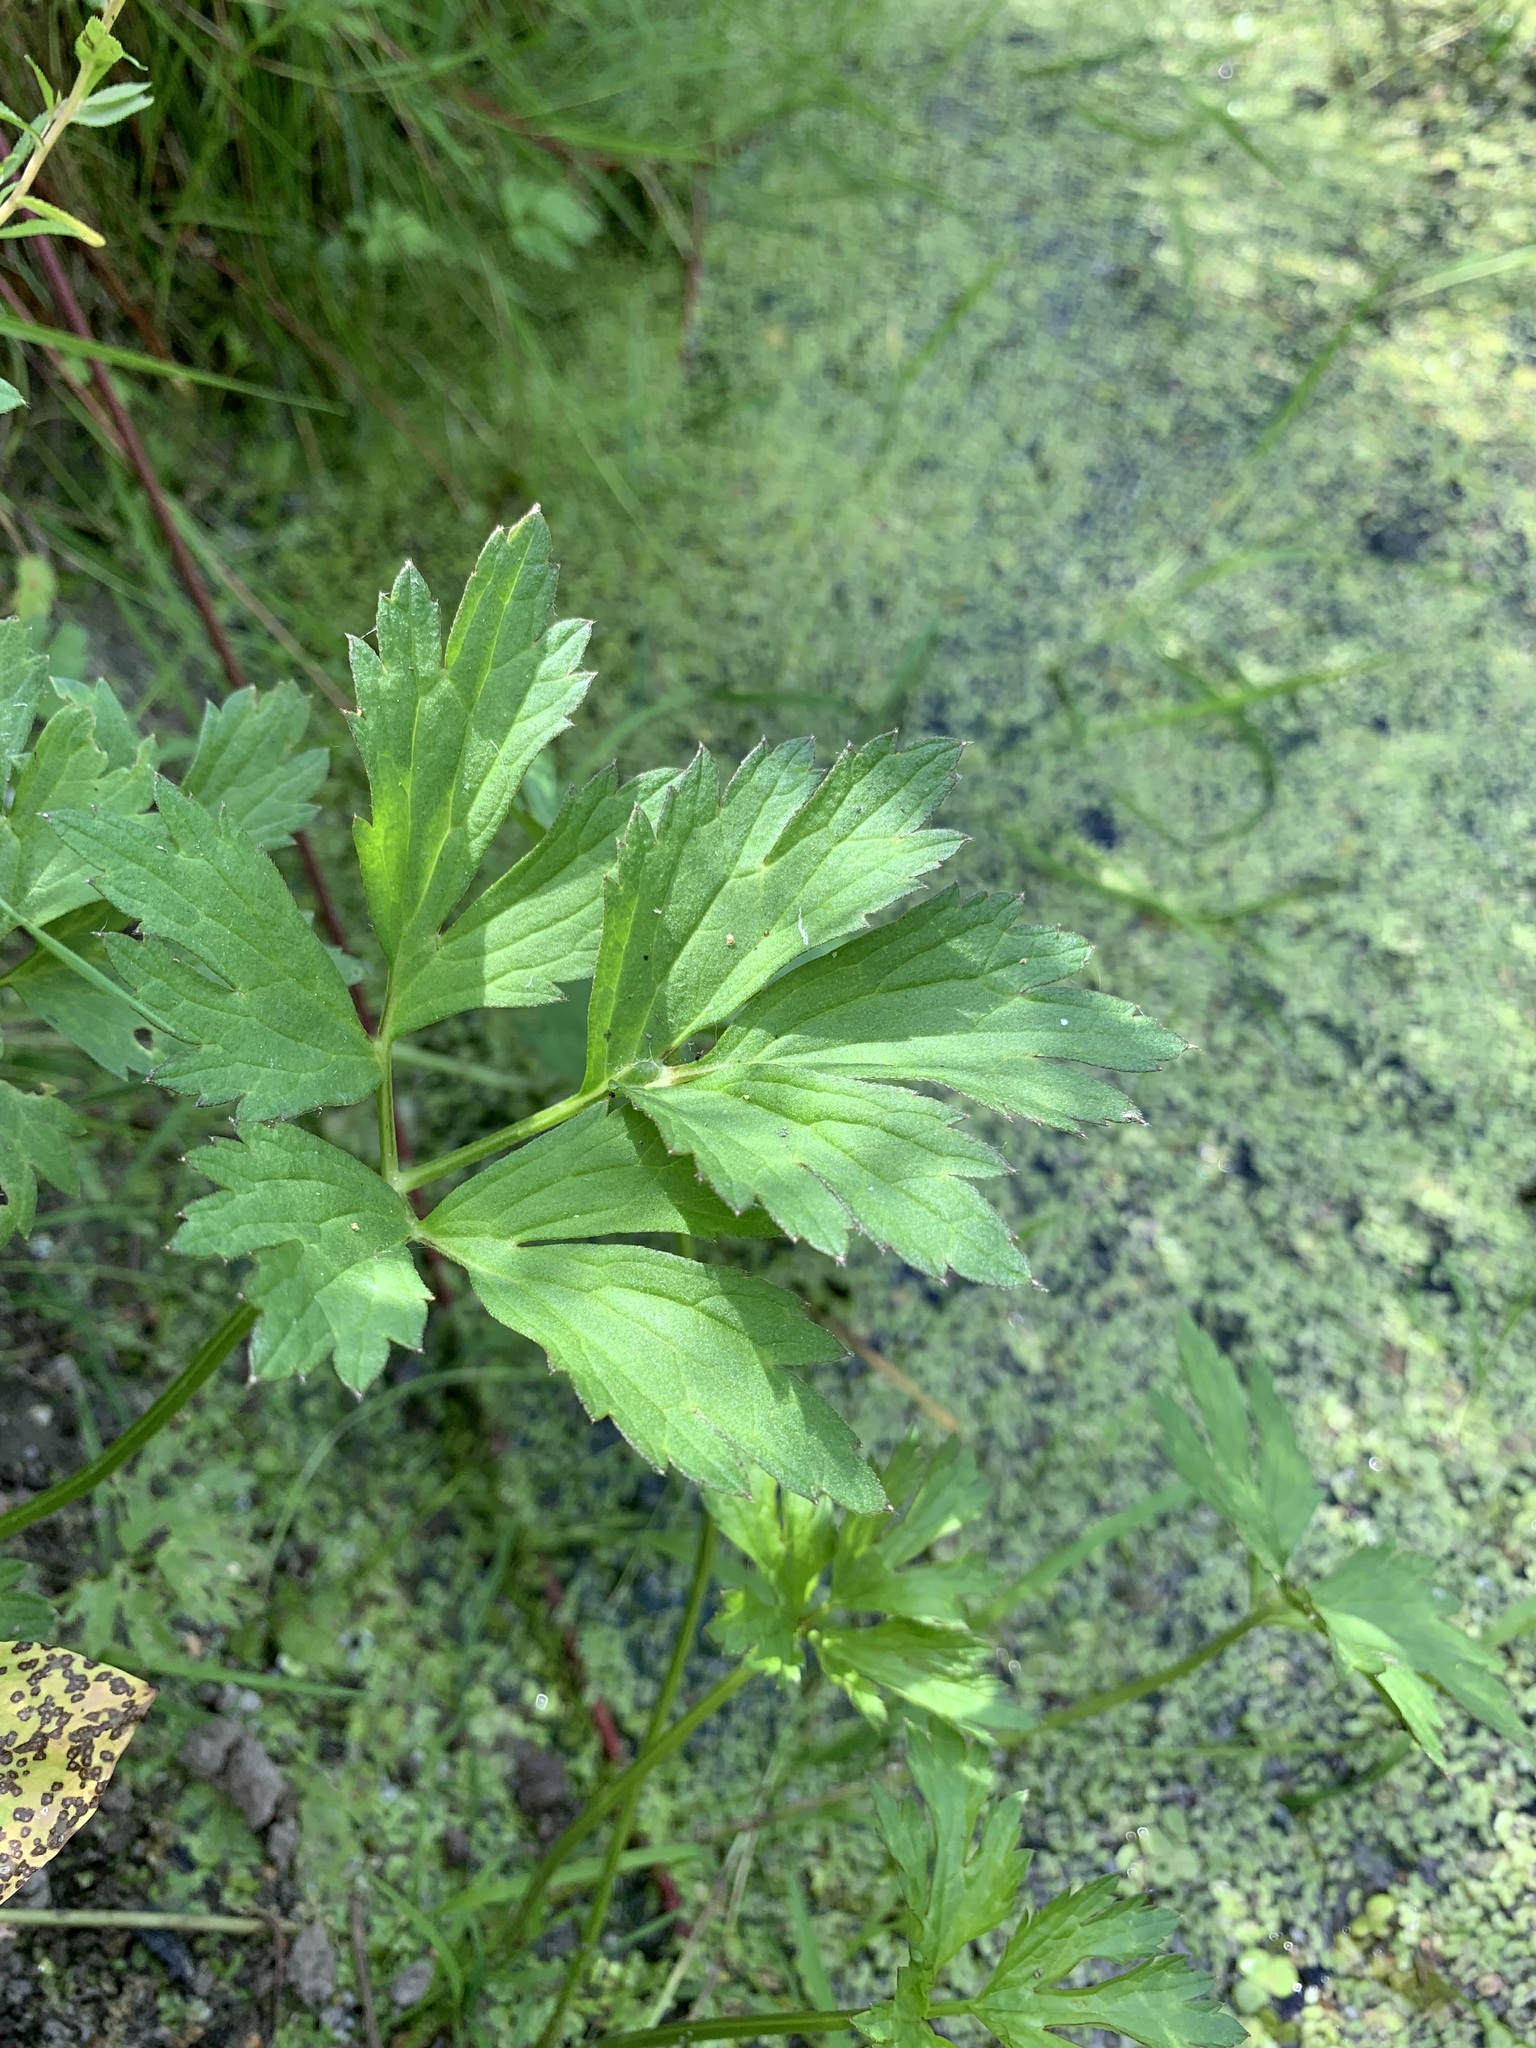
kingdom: Plantae
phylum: Tracheophyta
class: Magnoliopsida
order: Ranunculales
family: Ranunculaceae
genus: Ranunculus
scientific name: Ranunculus repens
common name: Creeping buttercup
